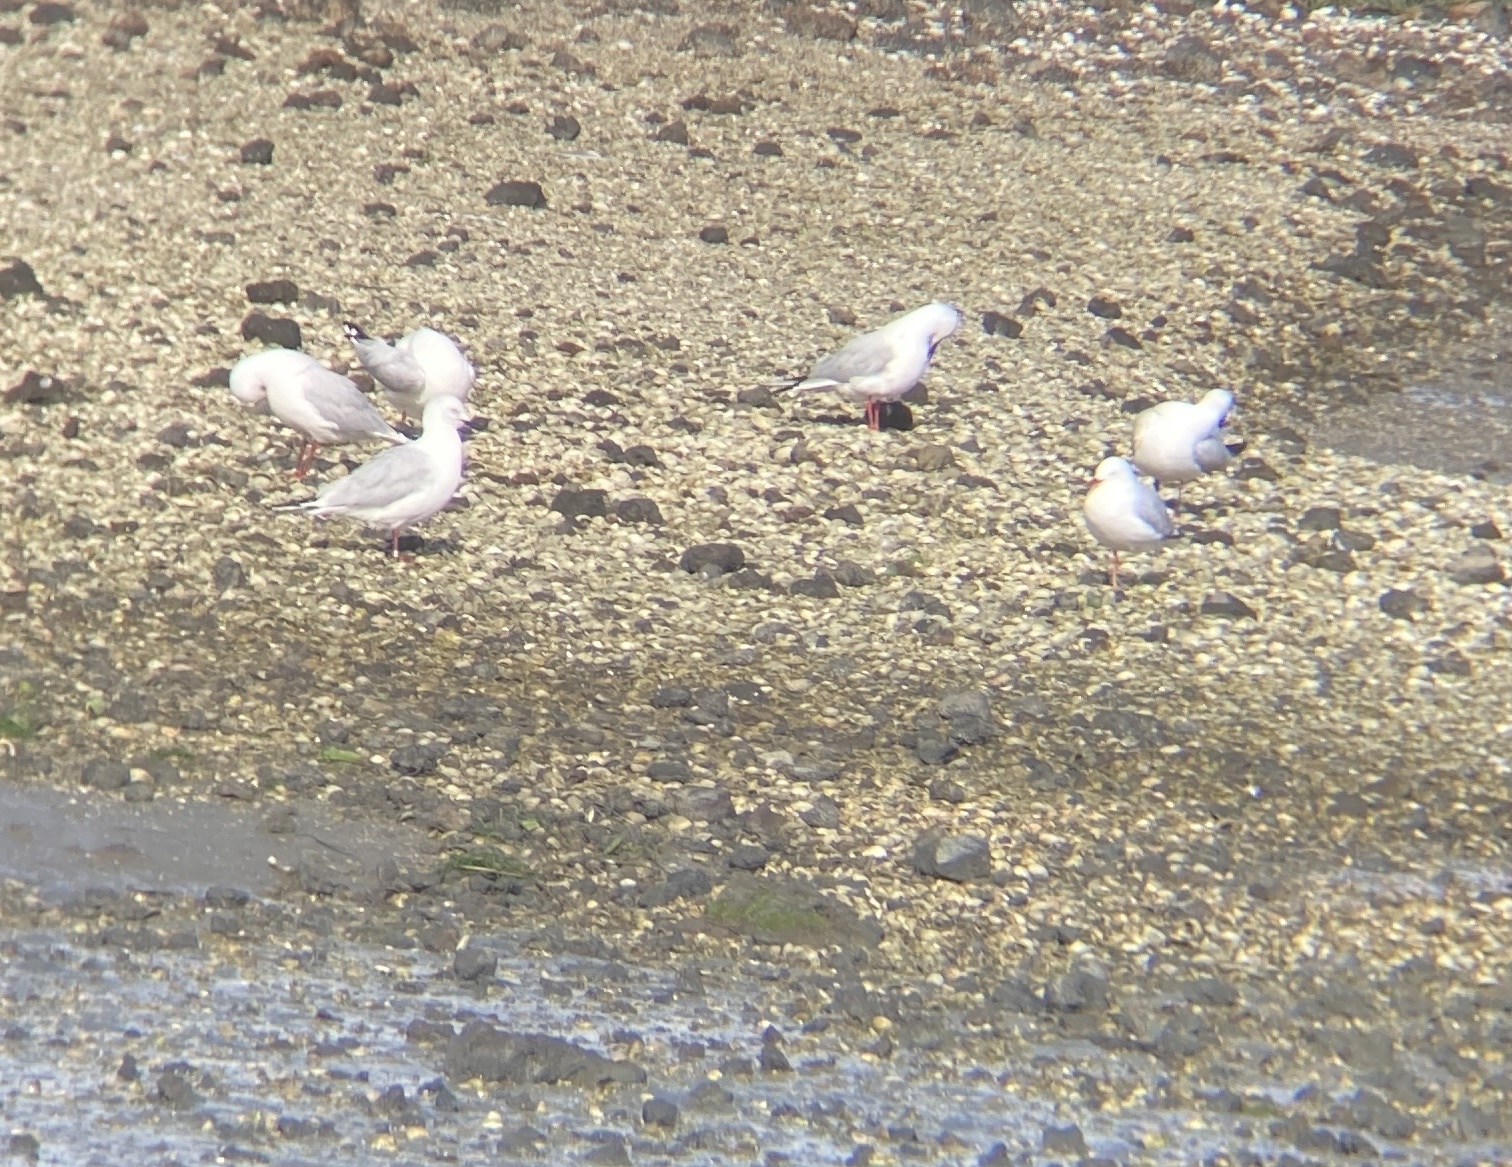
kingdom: Animalia
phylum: Chordata
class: Aves
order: Charadriiformes
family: Laridae
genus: Chroicocephalus
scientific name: Chroicocephalus bulleri
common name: Black-billed gull
